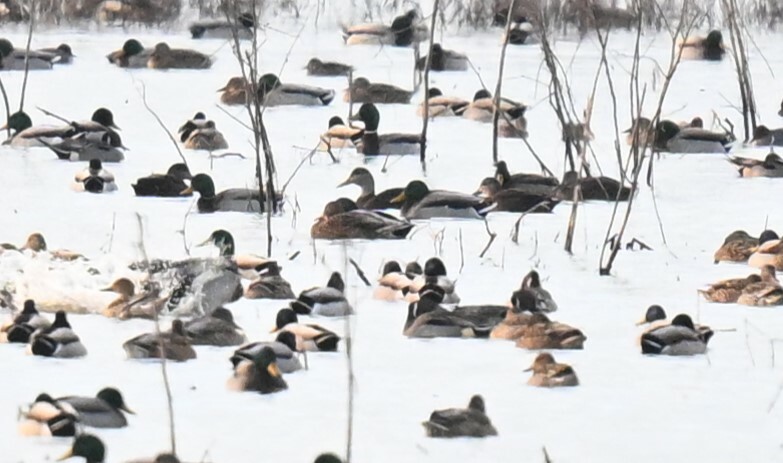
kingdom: Animalia
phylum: Chordata
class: Aves
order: Anseriformes
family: Anatidae
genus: Anas
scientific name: Anas rubripes
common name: American black duck
